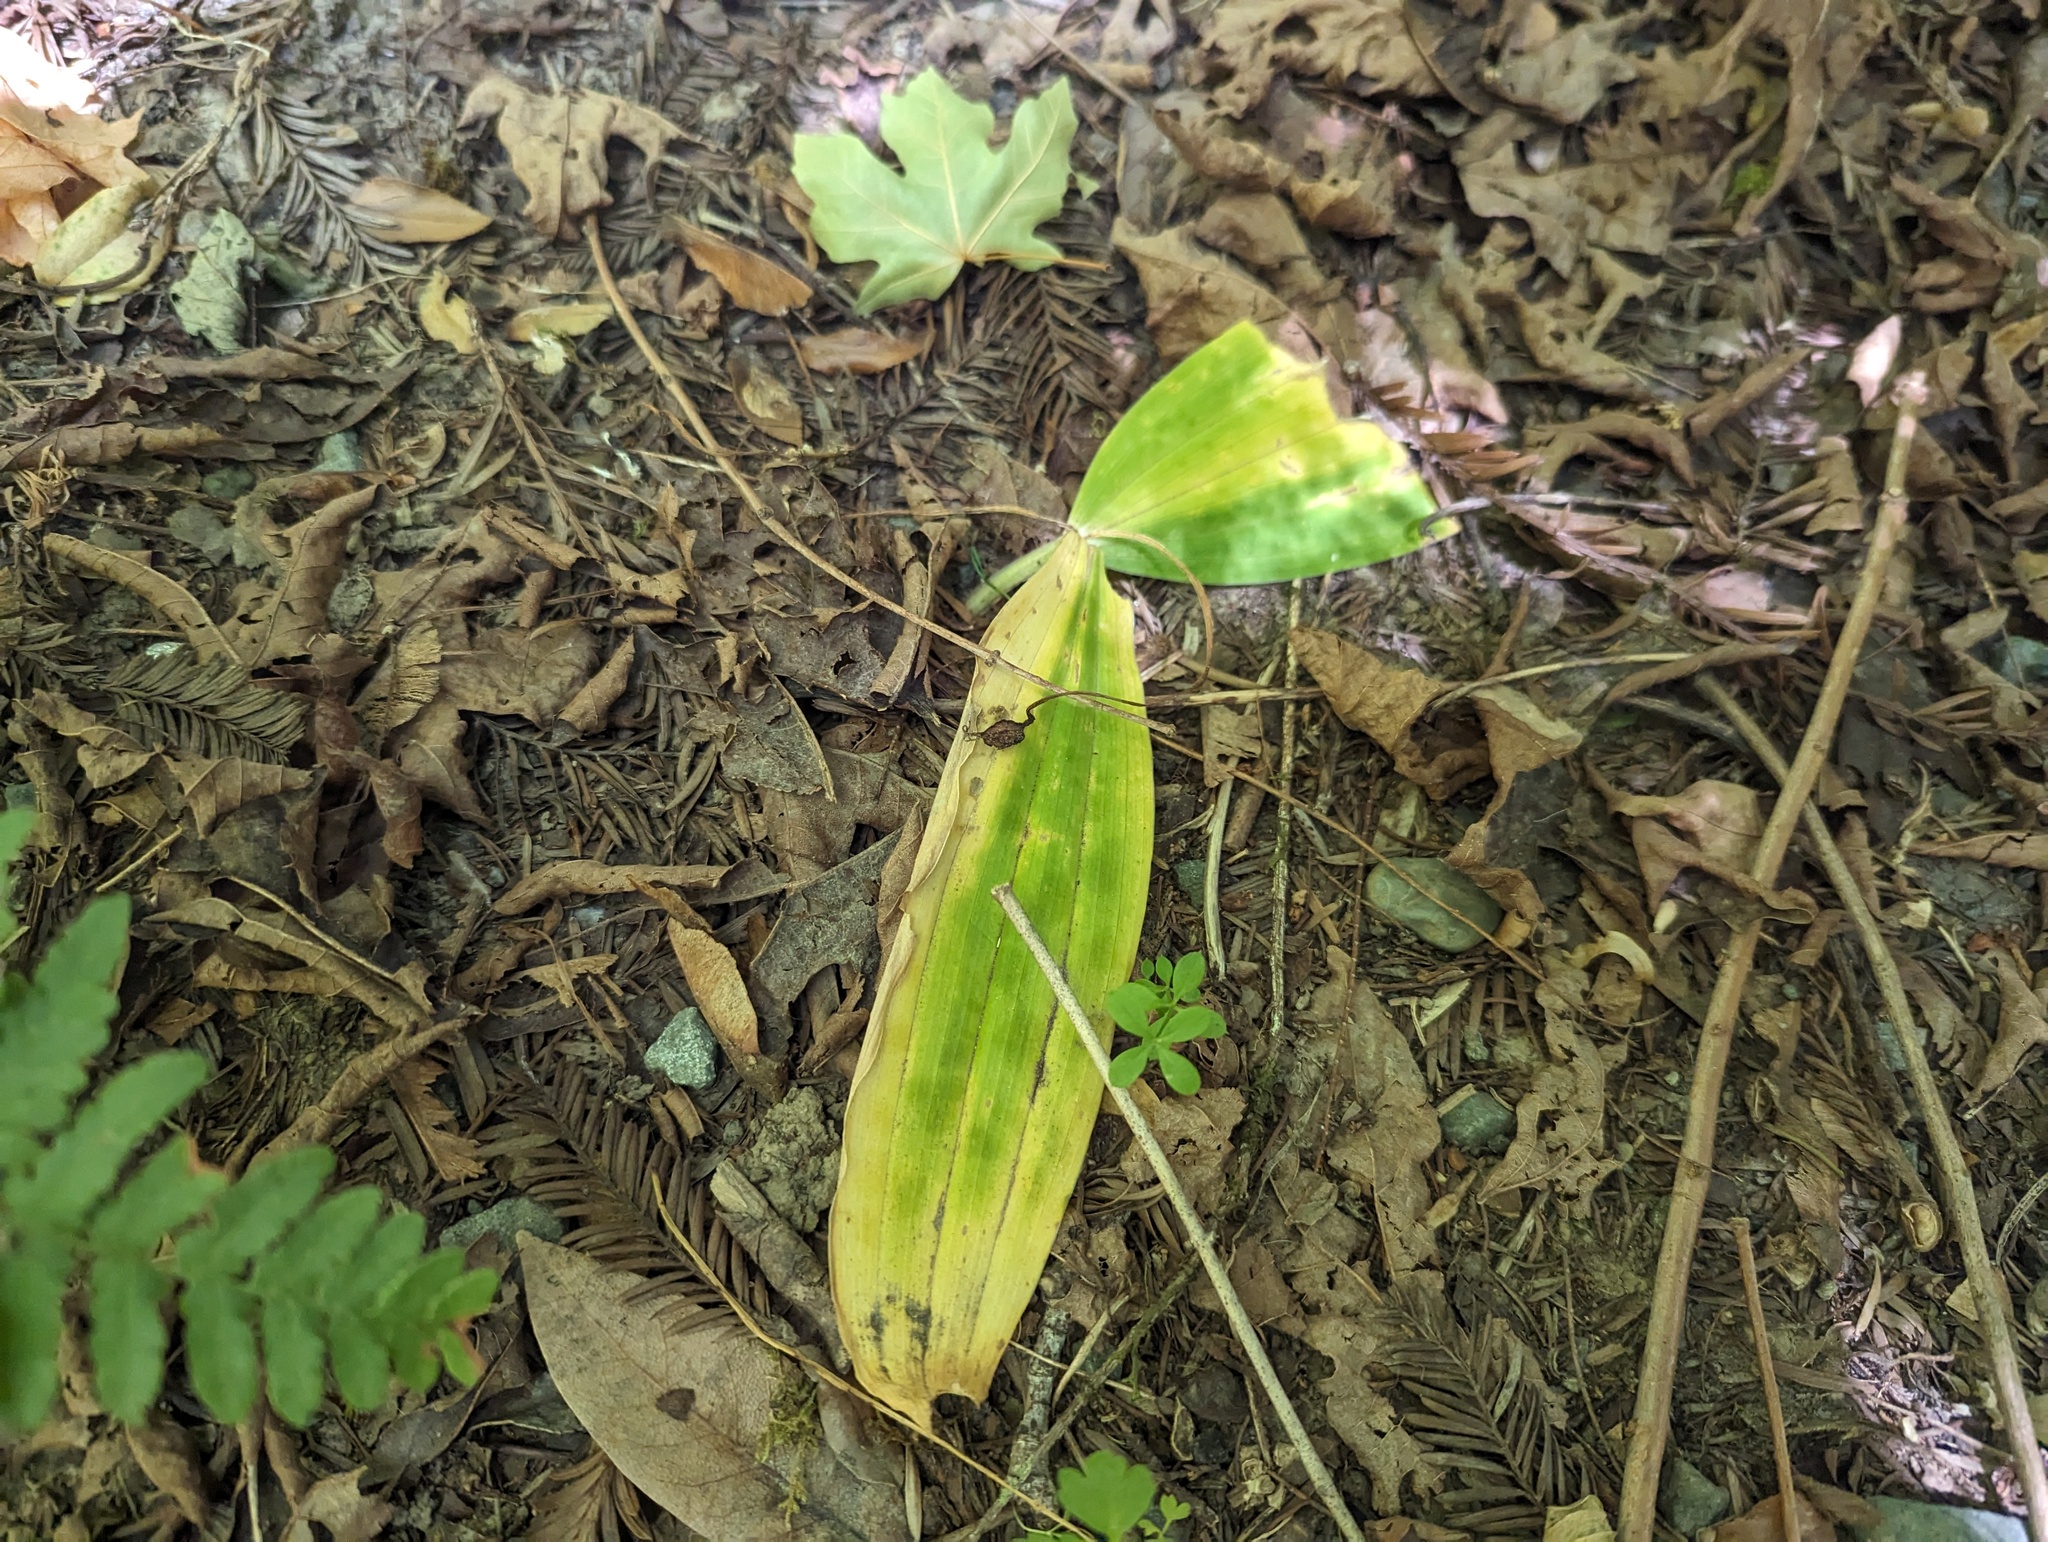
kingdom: Plantae
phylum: Tracheophyta
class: Liliopsida
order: Liliales
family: Liliaceae
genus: Scoliopus
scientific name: Scoliopus bigelovii
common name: Foetid adder's-tongue
